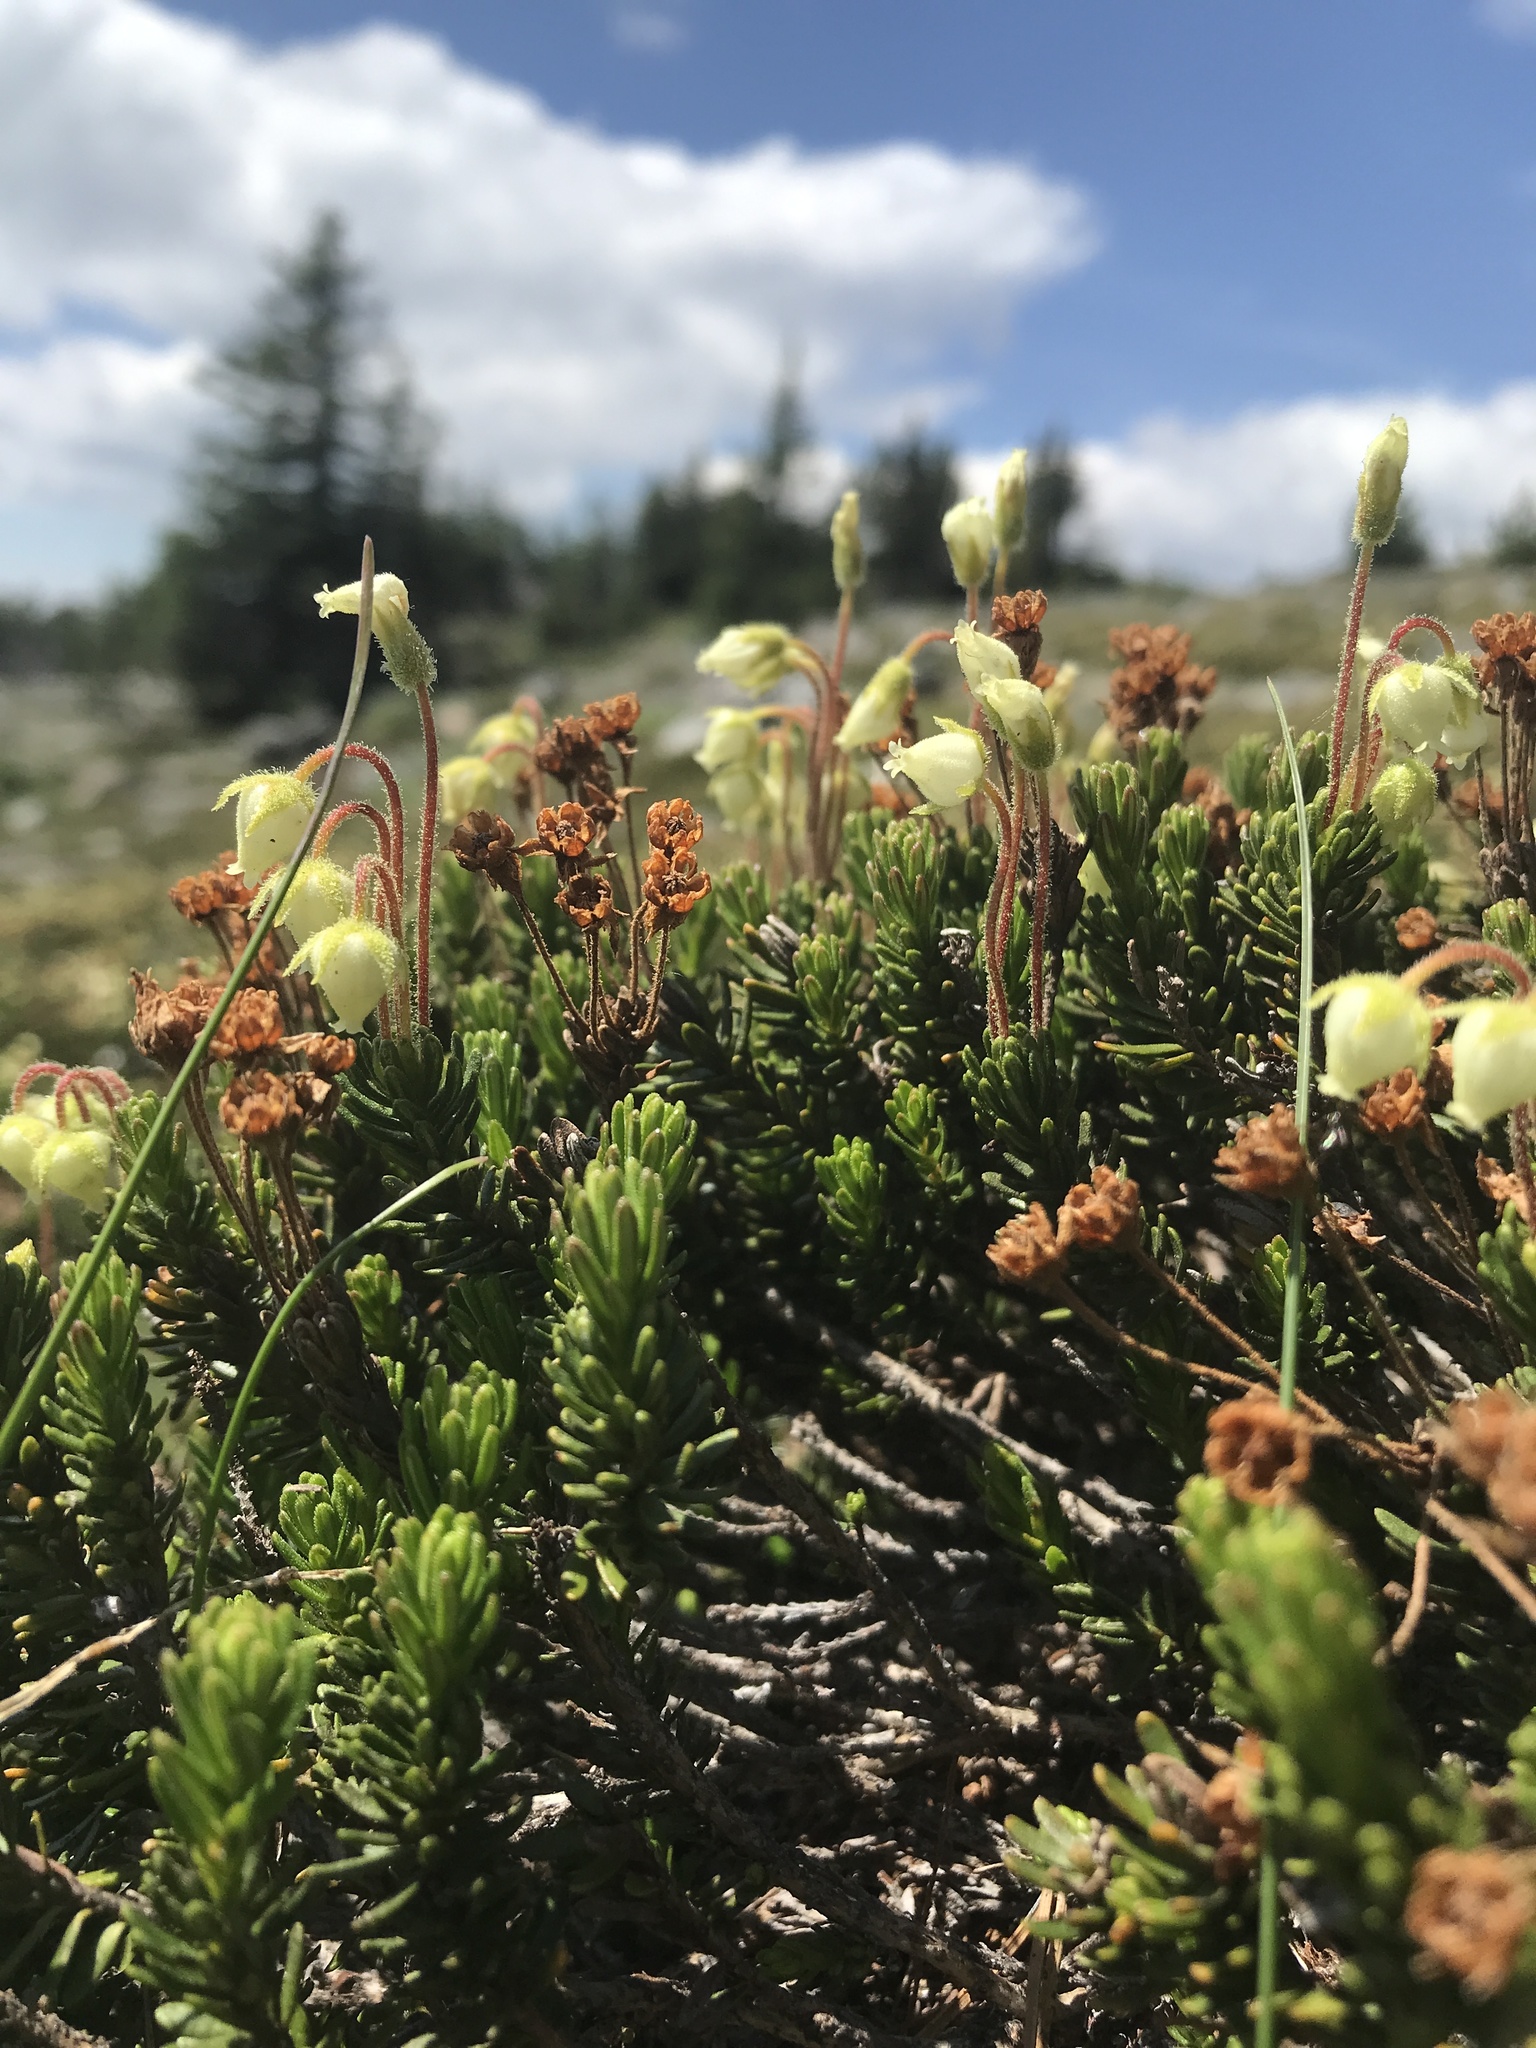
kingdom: Plantae
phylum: Tracheophyta
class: Magnoliopsida
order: Ericales
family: Ericaceae
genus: Phyllodoce
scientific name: Phyllodoce glanduliflora
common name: Cream mountain heather
